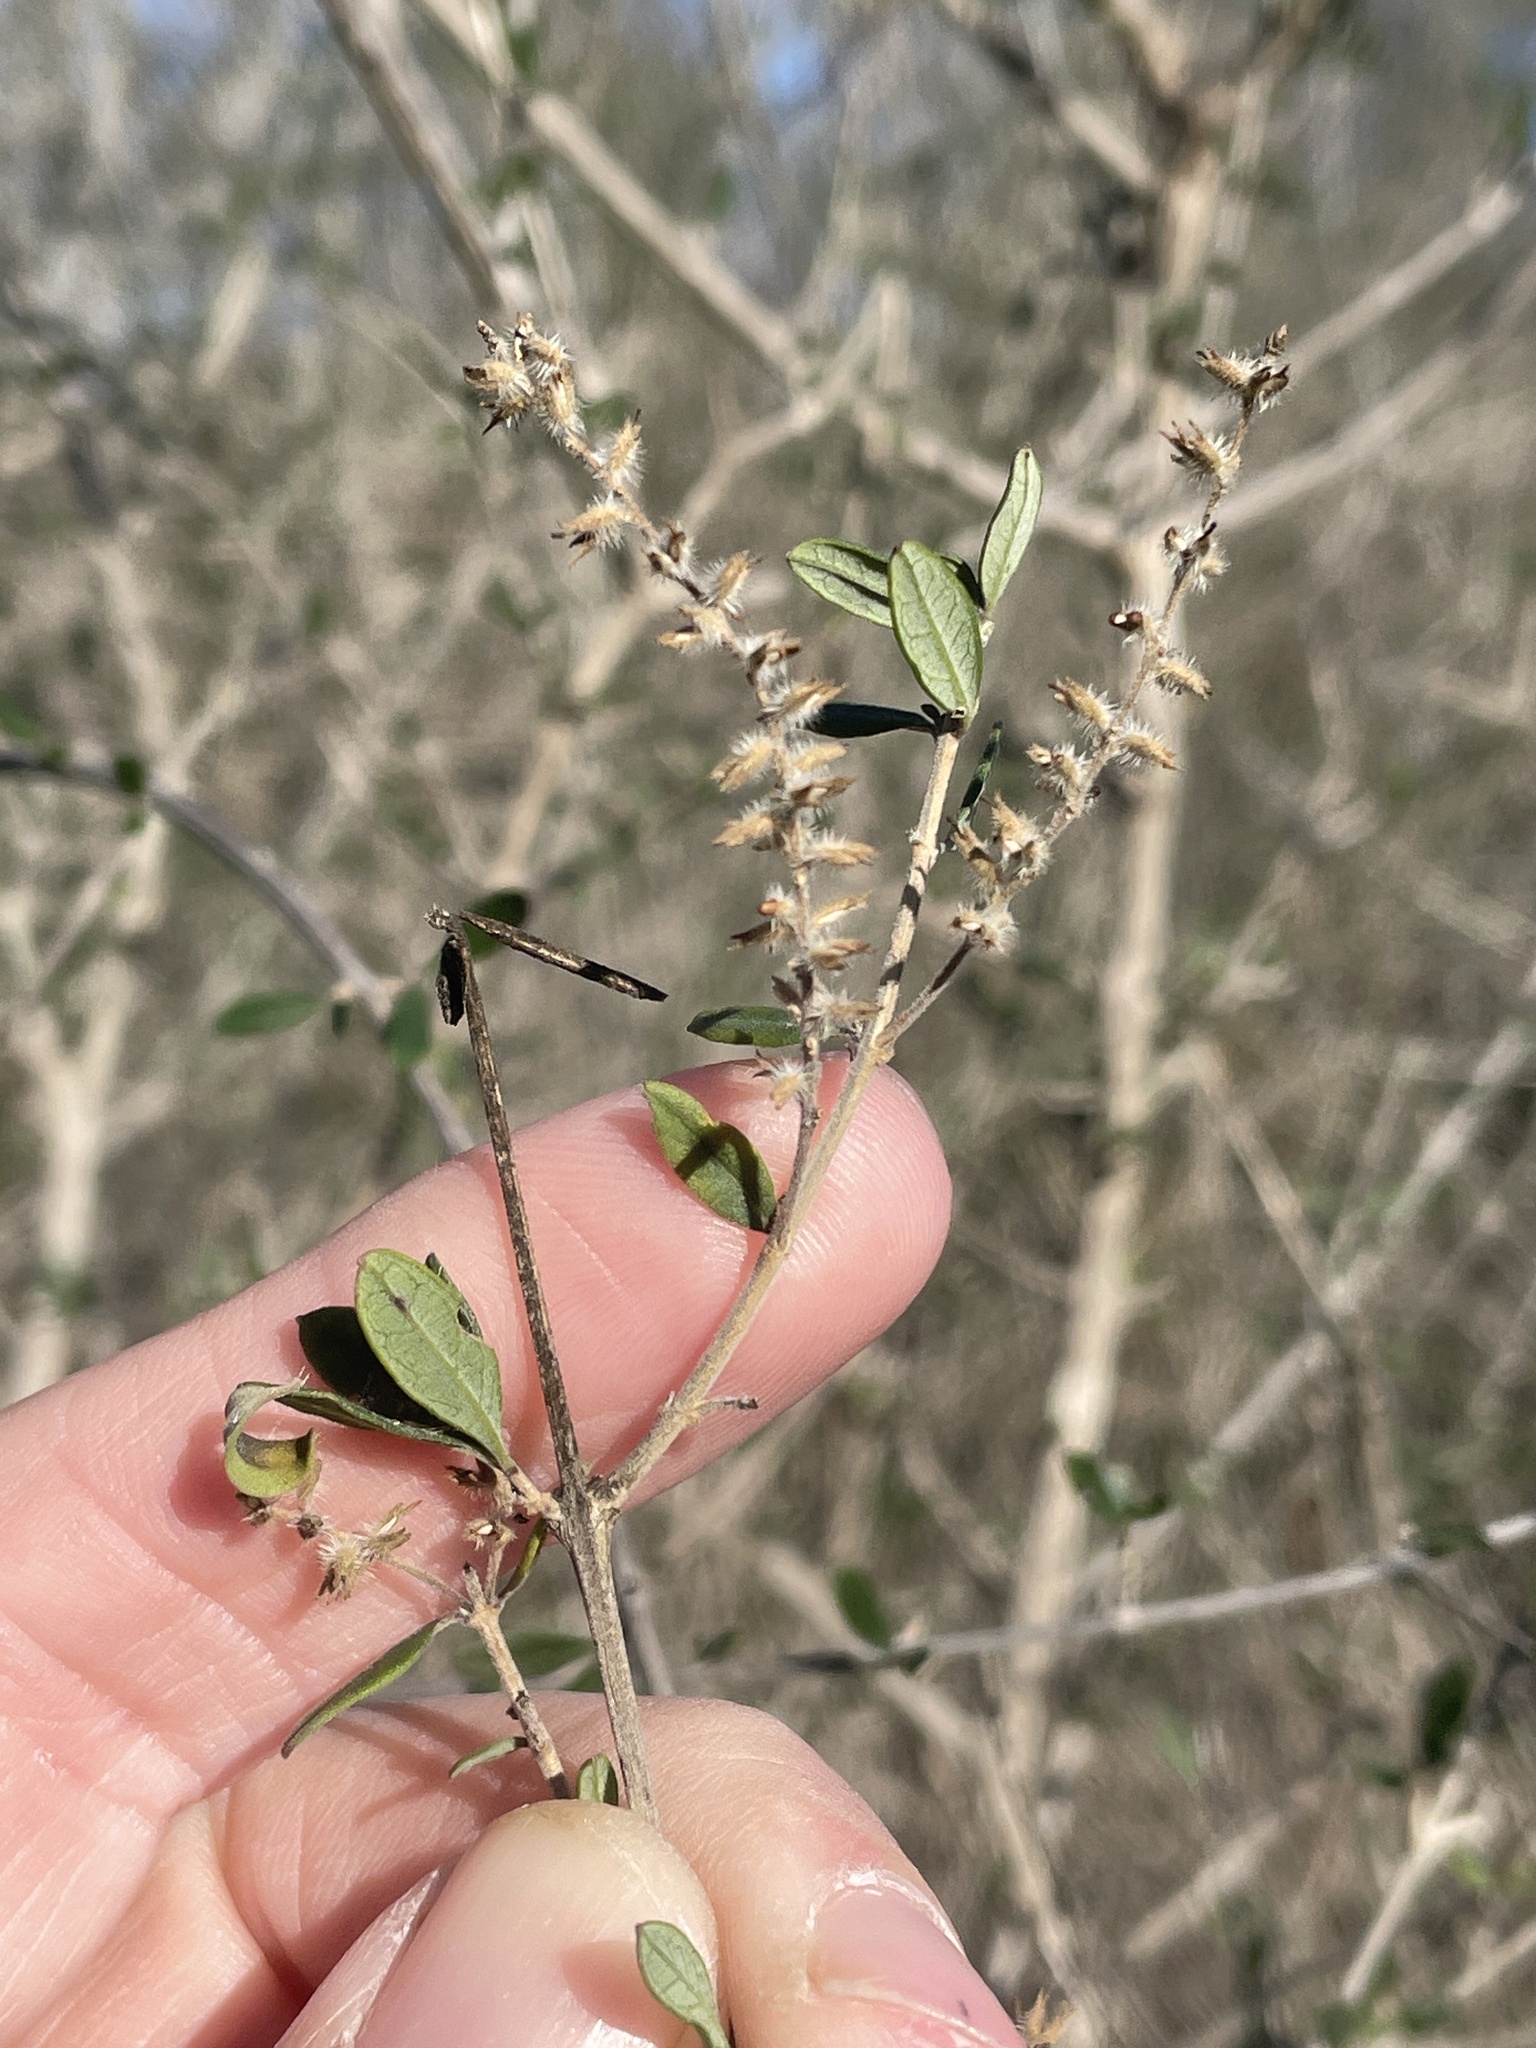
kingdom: Plantae
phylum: Tracheophyta
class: Magnoliopsida
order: Lamiales
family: Verbenaceae
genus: Aloysia
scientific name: Aloysia gratissima
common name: Common bee-brush
